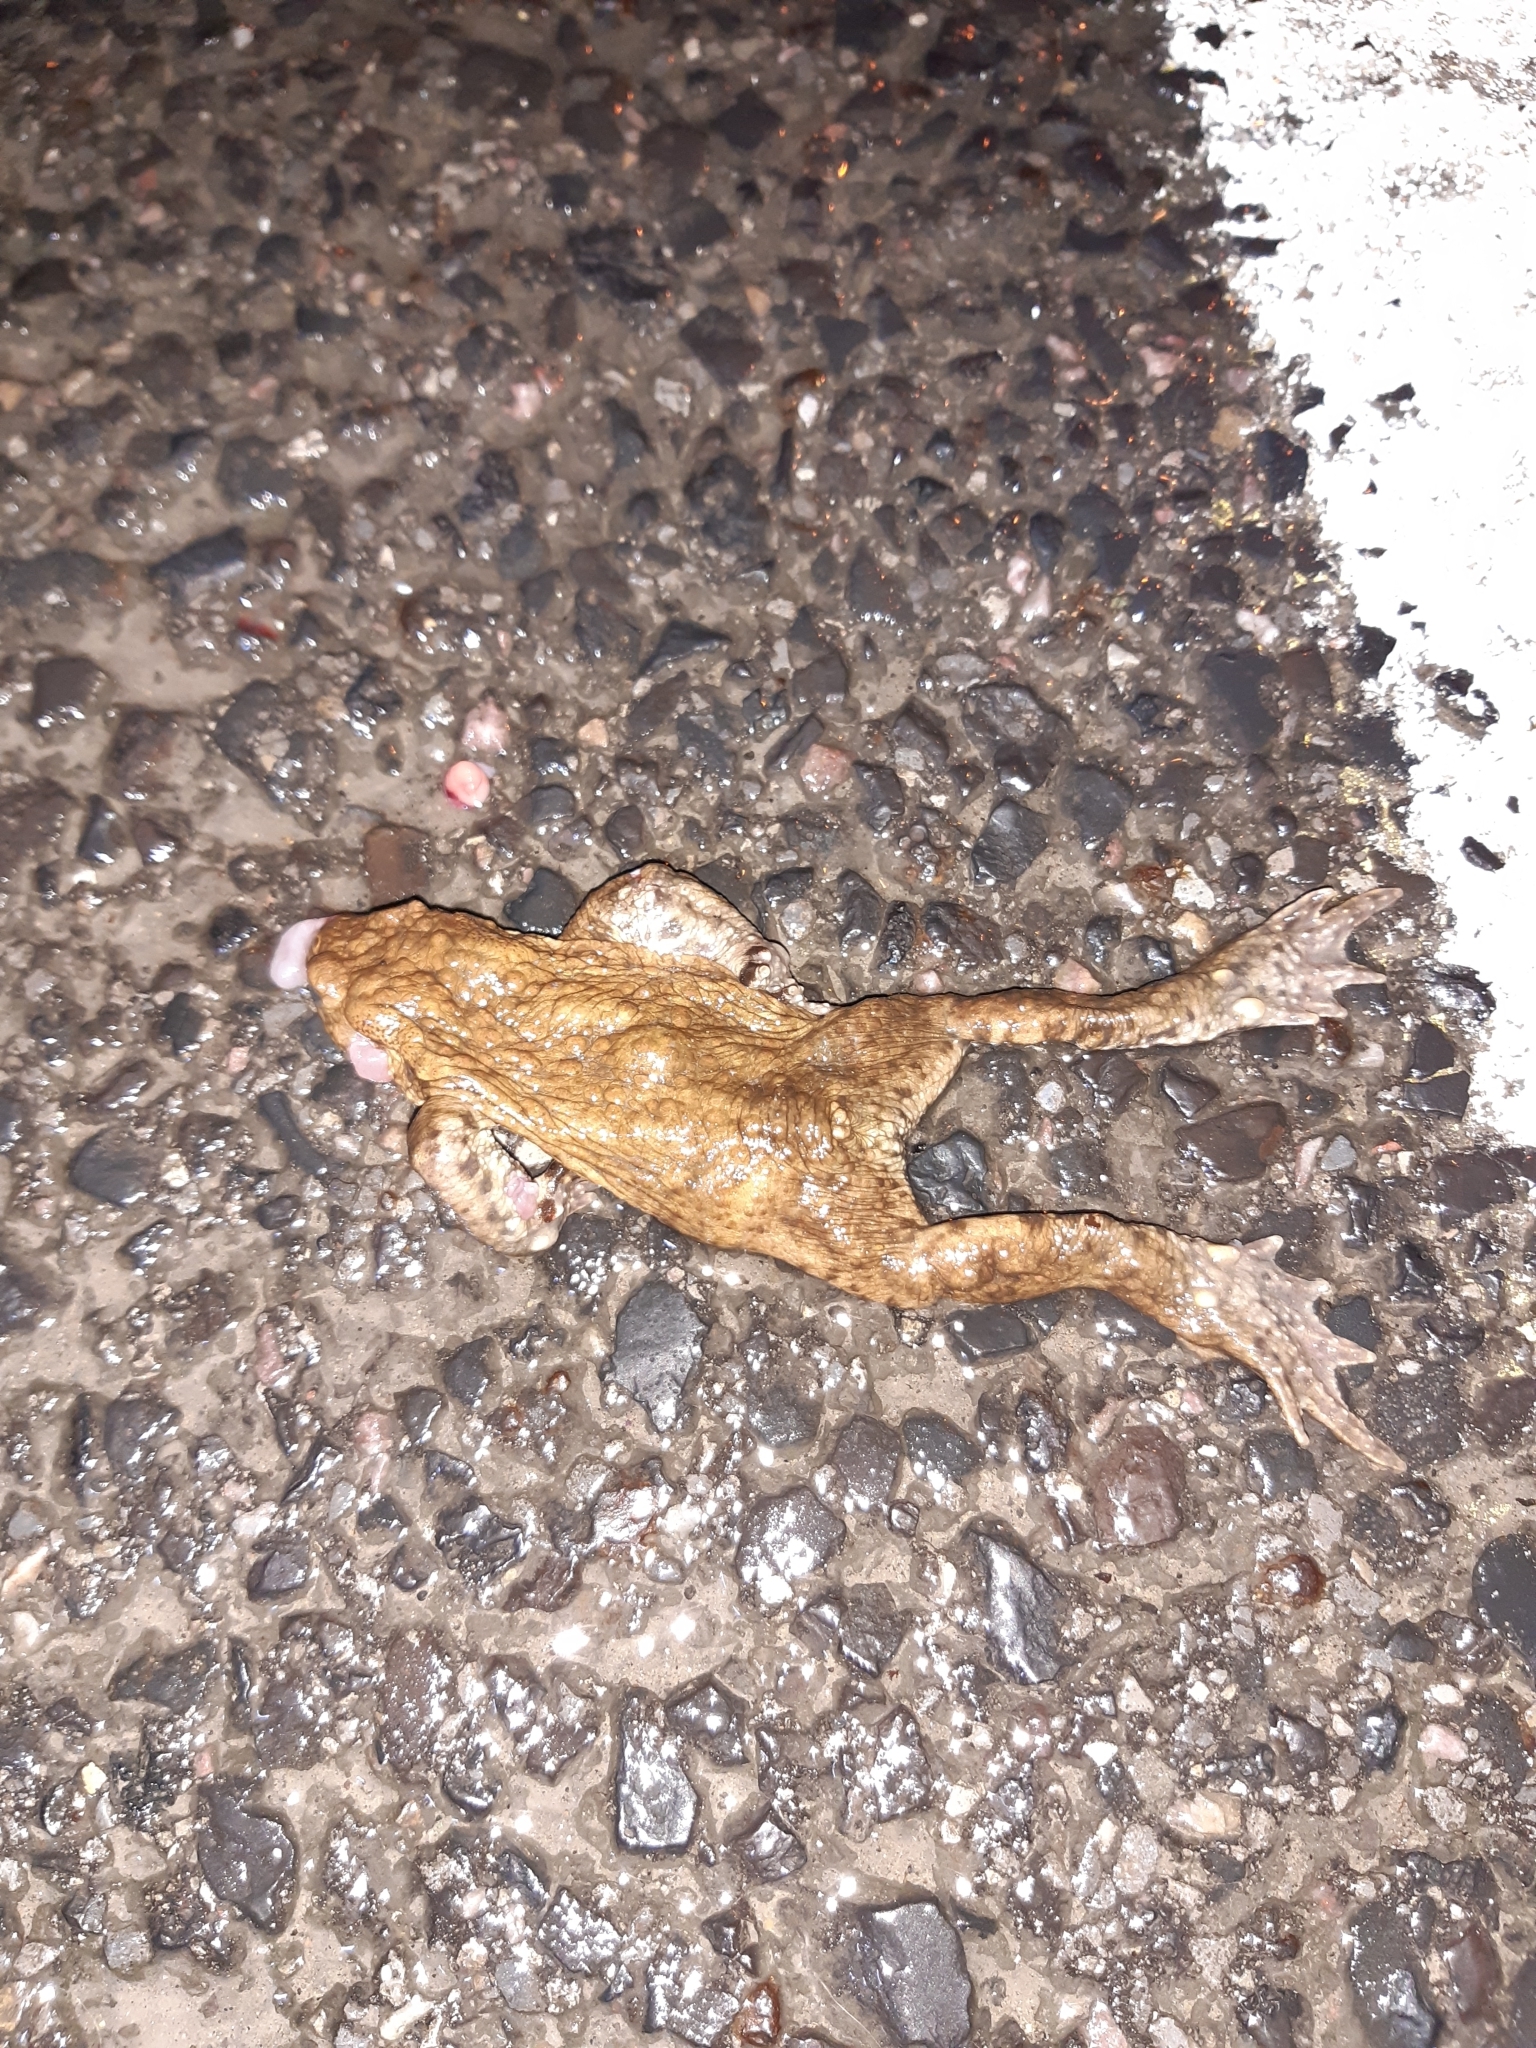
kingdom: Animalia
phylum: Chordata
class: Amphibia
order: Anura
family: Bufonidae
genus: Bufo
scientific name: Bufo bufo
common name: Common toad
